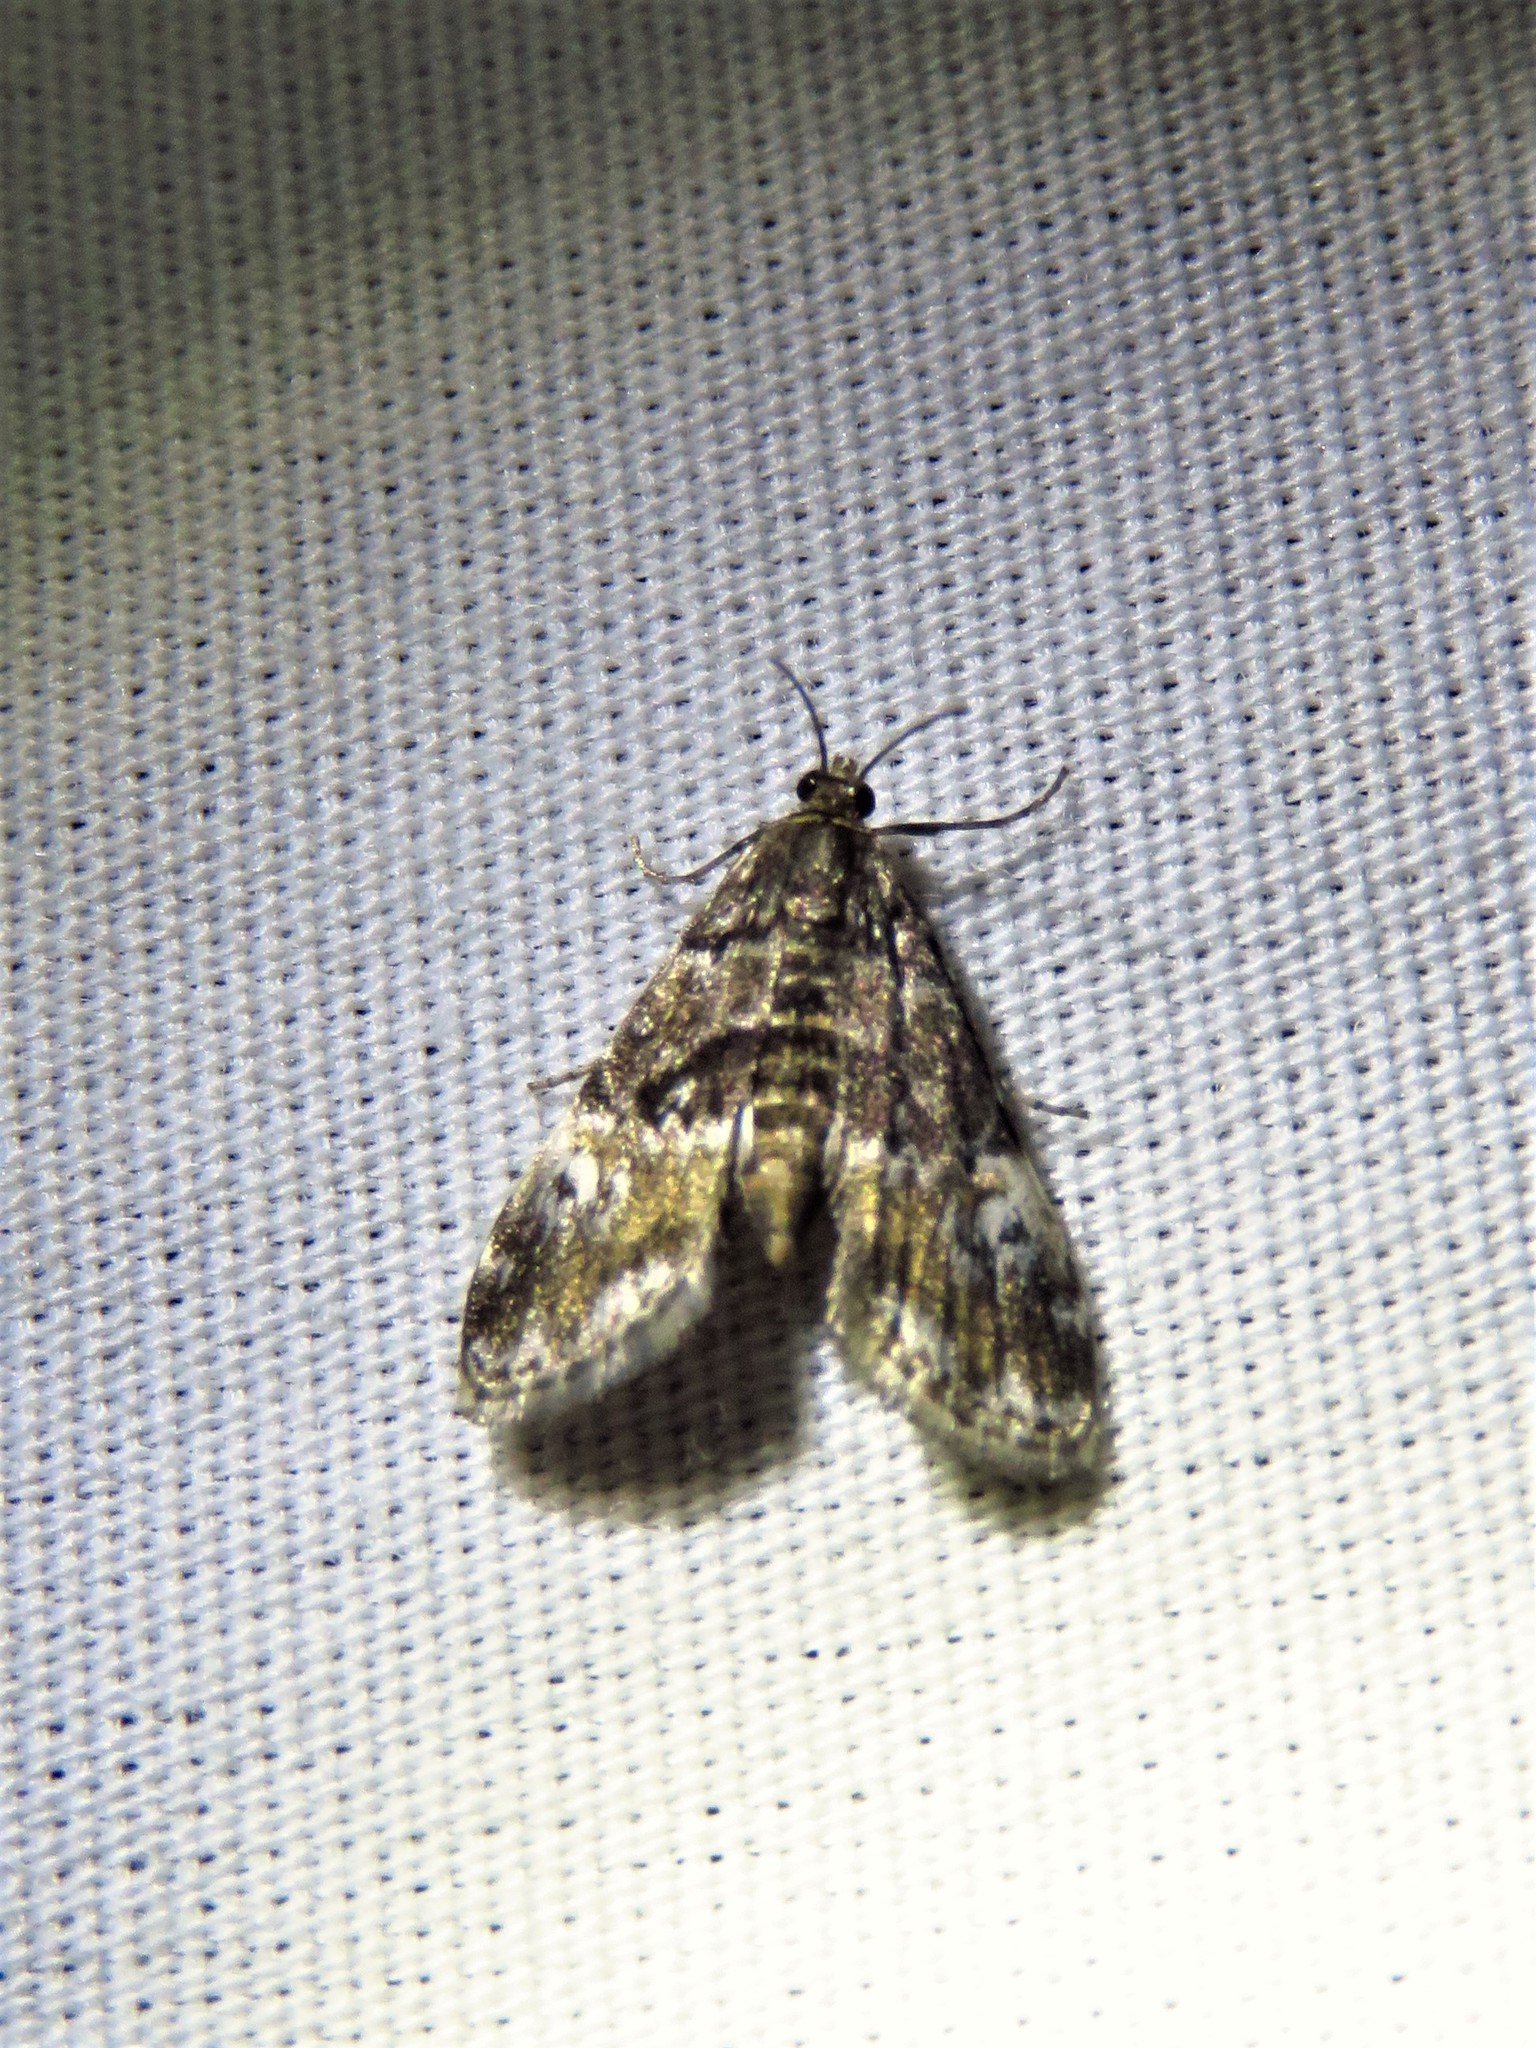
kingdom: Animalia
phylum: Arthropoda
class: Insecta
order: Lepidoptera
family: Crambidae
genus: Elophila
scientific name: Elophila obliteralis
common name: Waterlily leafcutter moth
